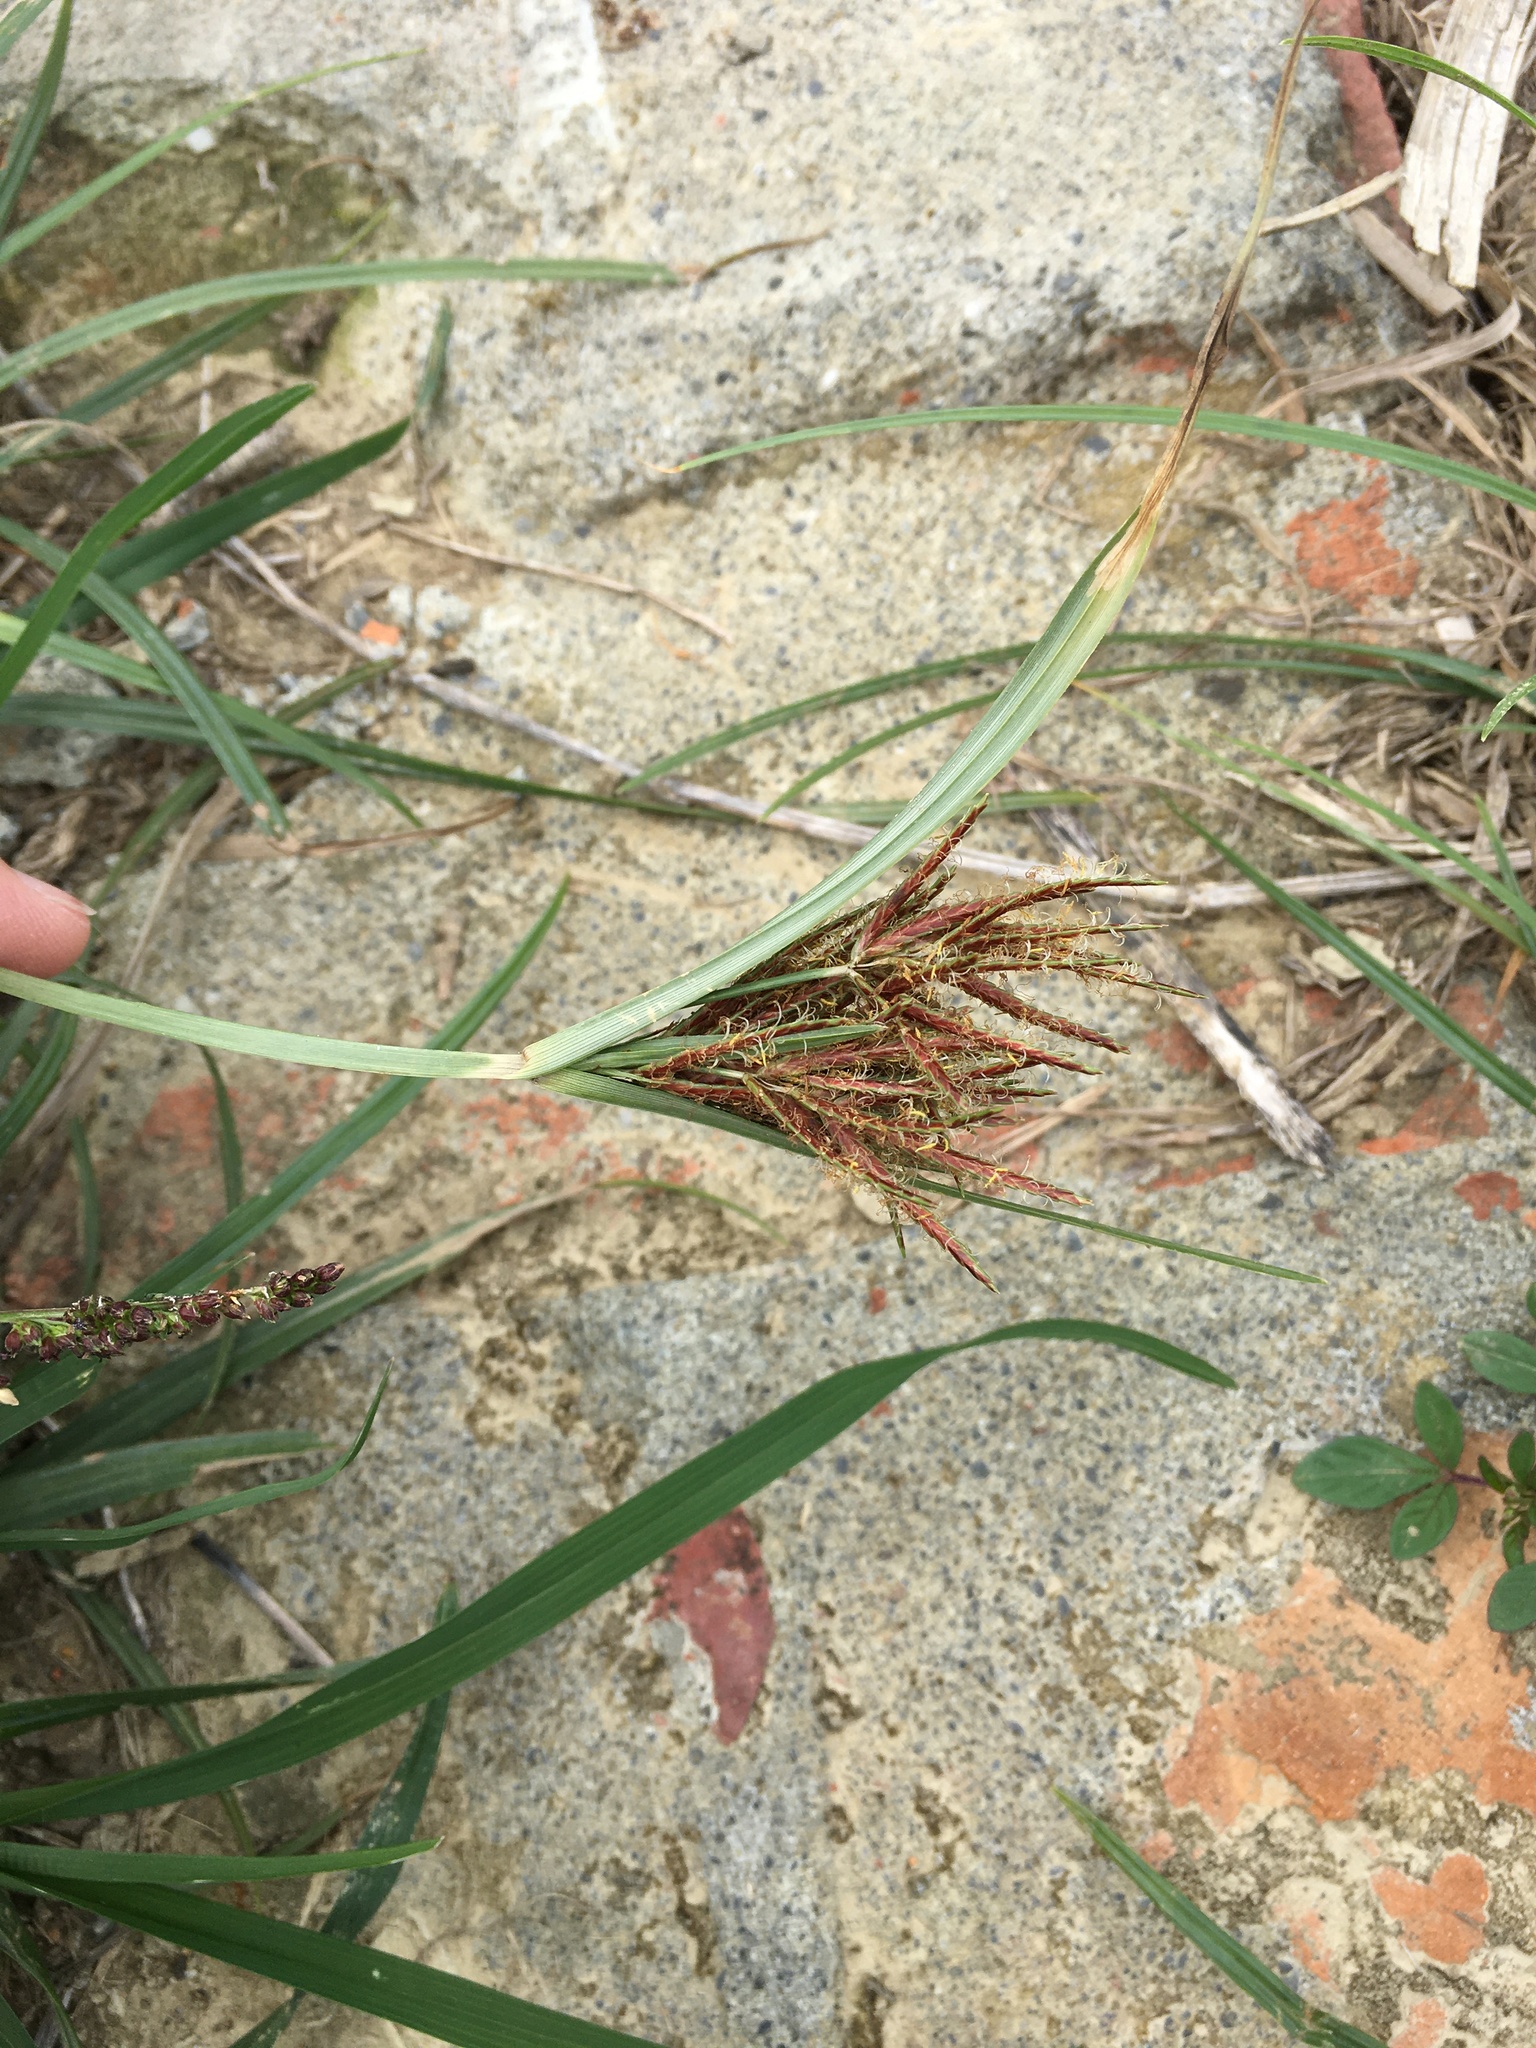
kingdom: Plantae
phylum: Tracheophyta
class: Liliopsida
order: Poales
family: Cyperaceae
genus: Cyperus
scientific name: Cyperus rotundus
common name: Nutgrass
